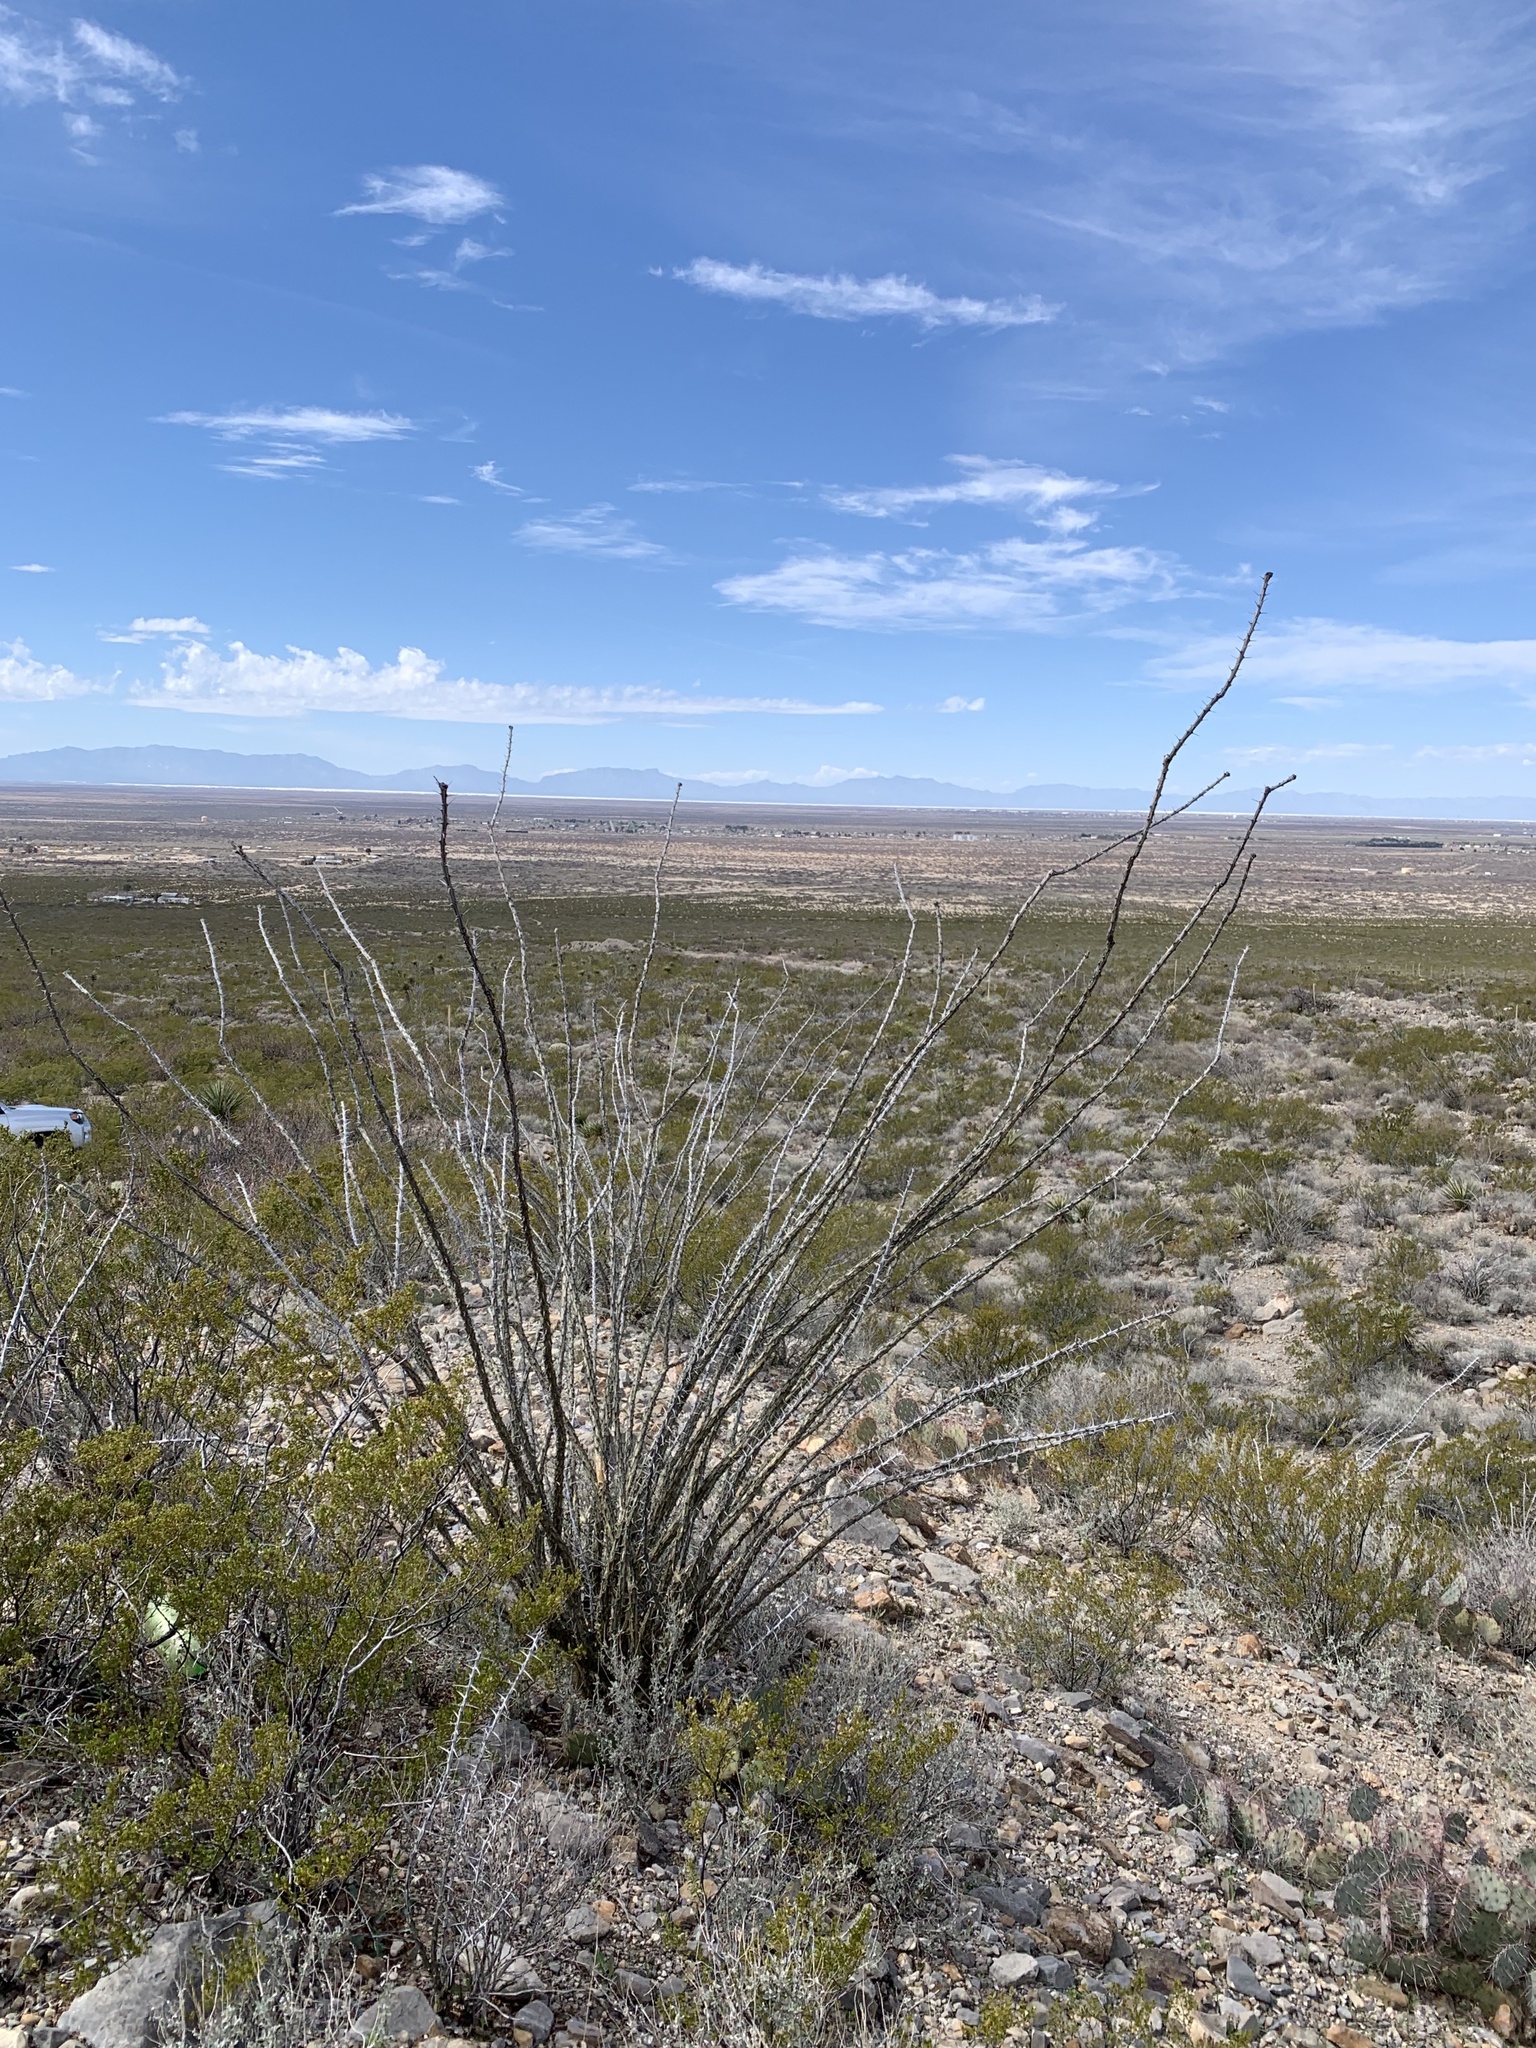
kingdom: Plantae
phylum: Tracheophyta
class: Magnoliopsida
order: Ericales
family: Fouquieriaceae
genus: Fouquieria
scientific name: Fouquieria splendens
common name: Vine-cactus
